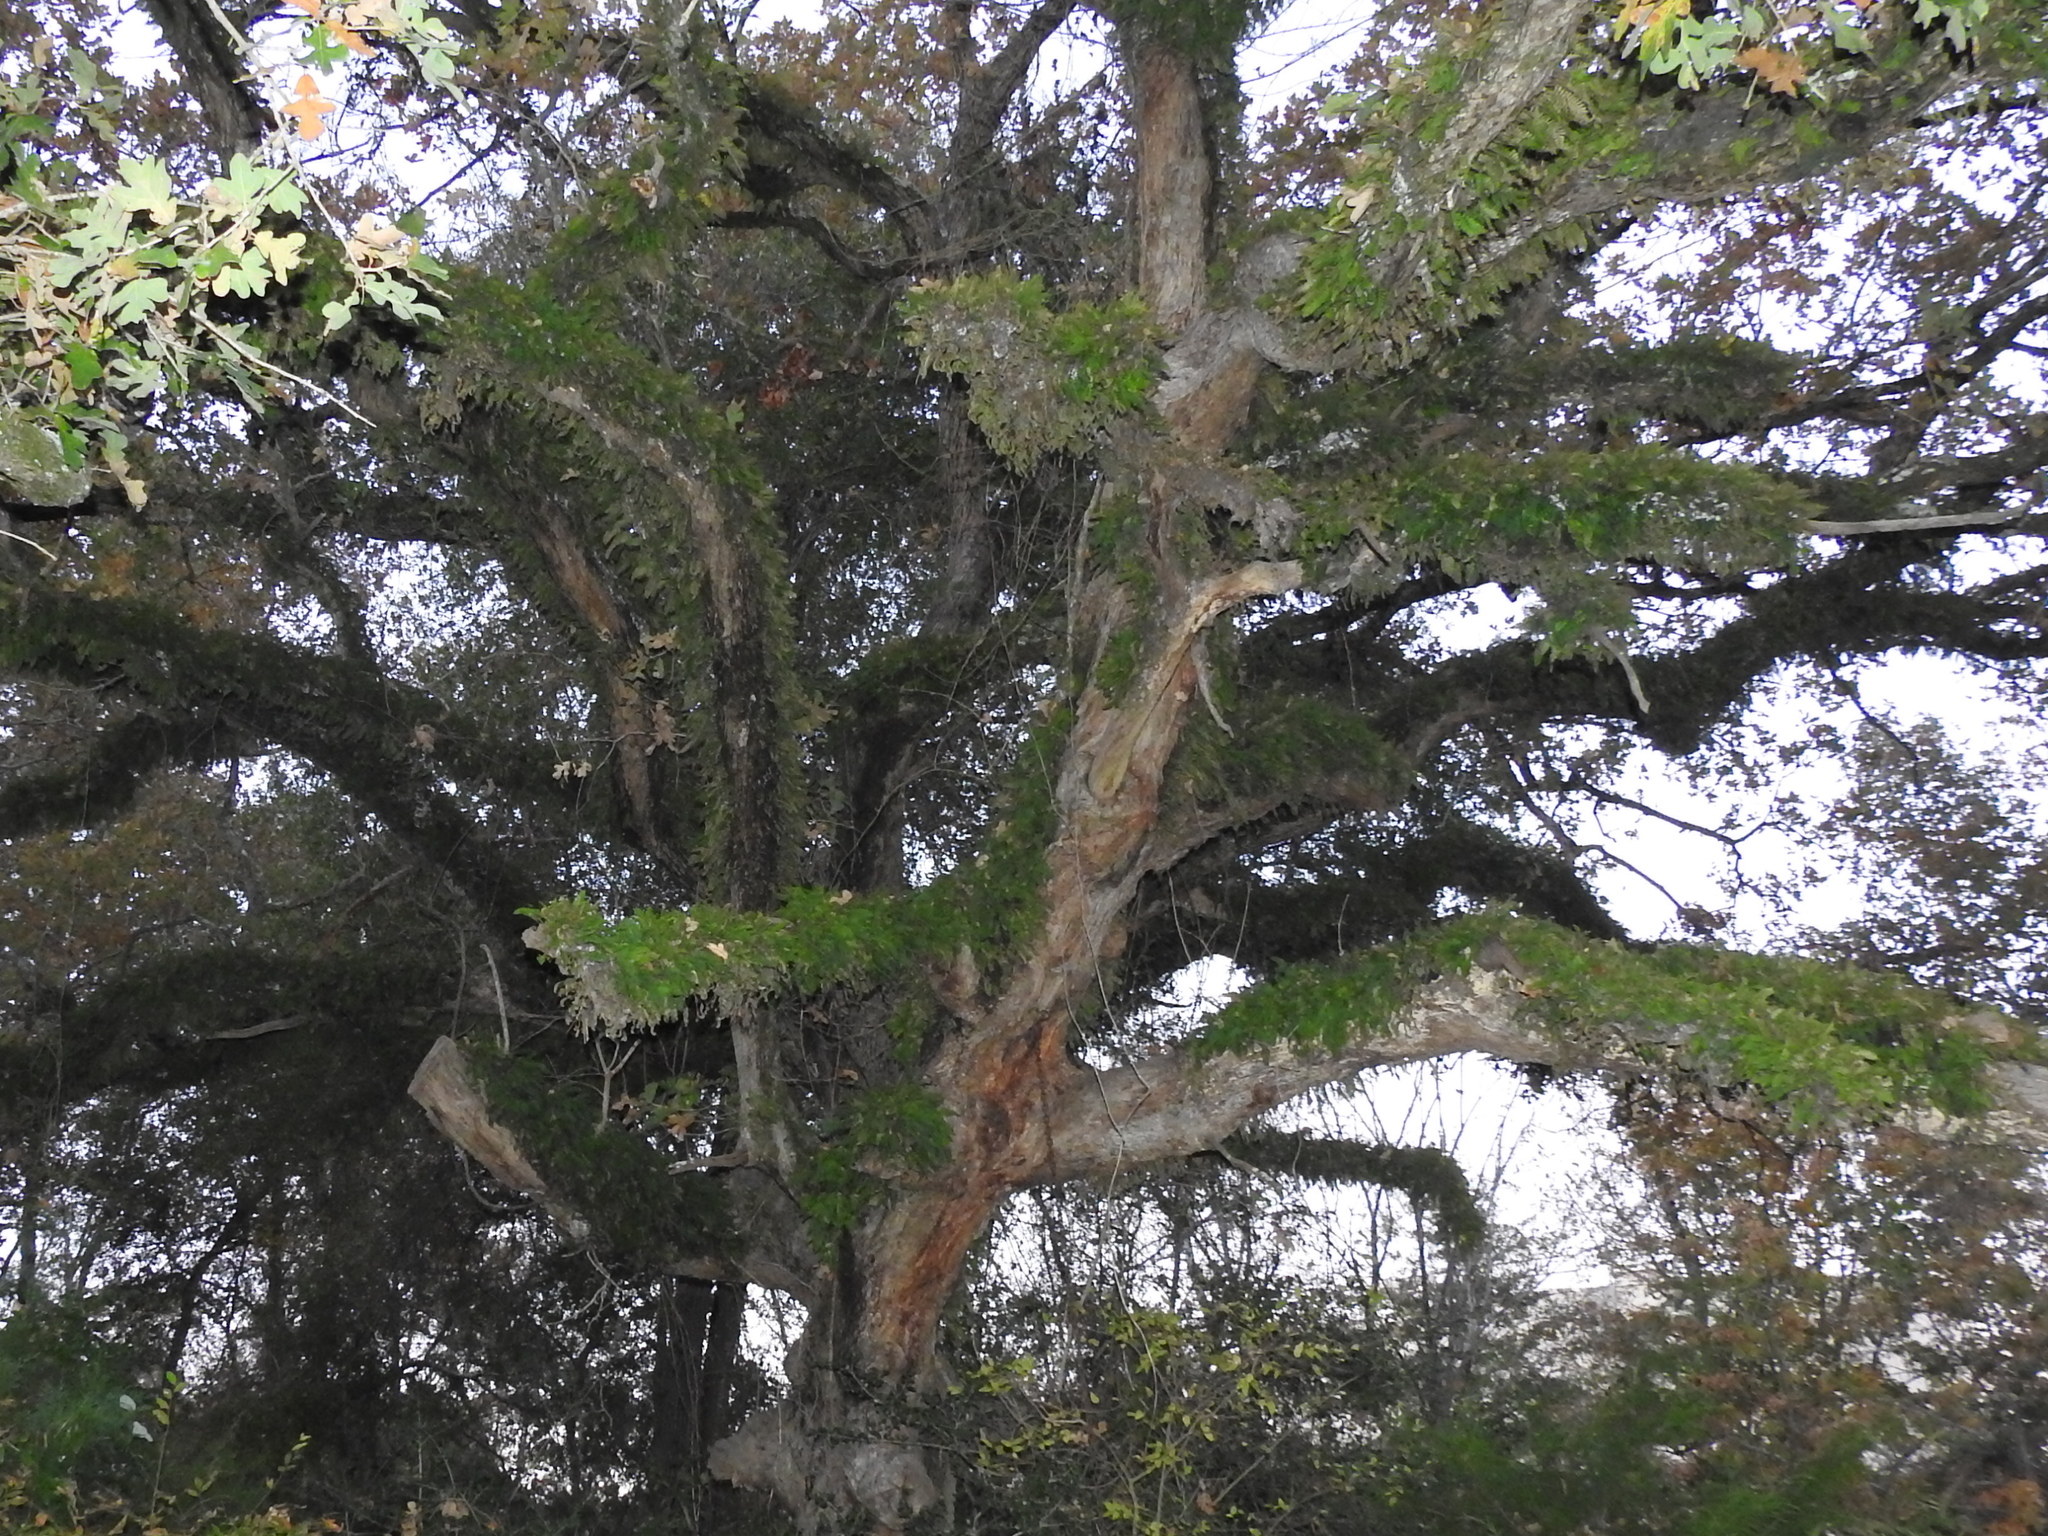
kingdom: Plantae
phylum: Tracheophyta
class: Polypodiopsida
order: Polypodiales
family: Polypodiaceae
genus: Pleopeltis
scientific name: Pleopeltis michauxiana
